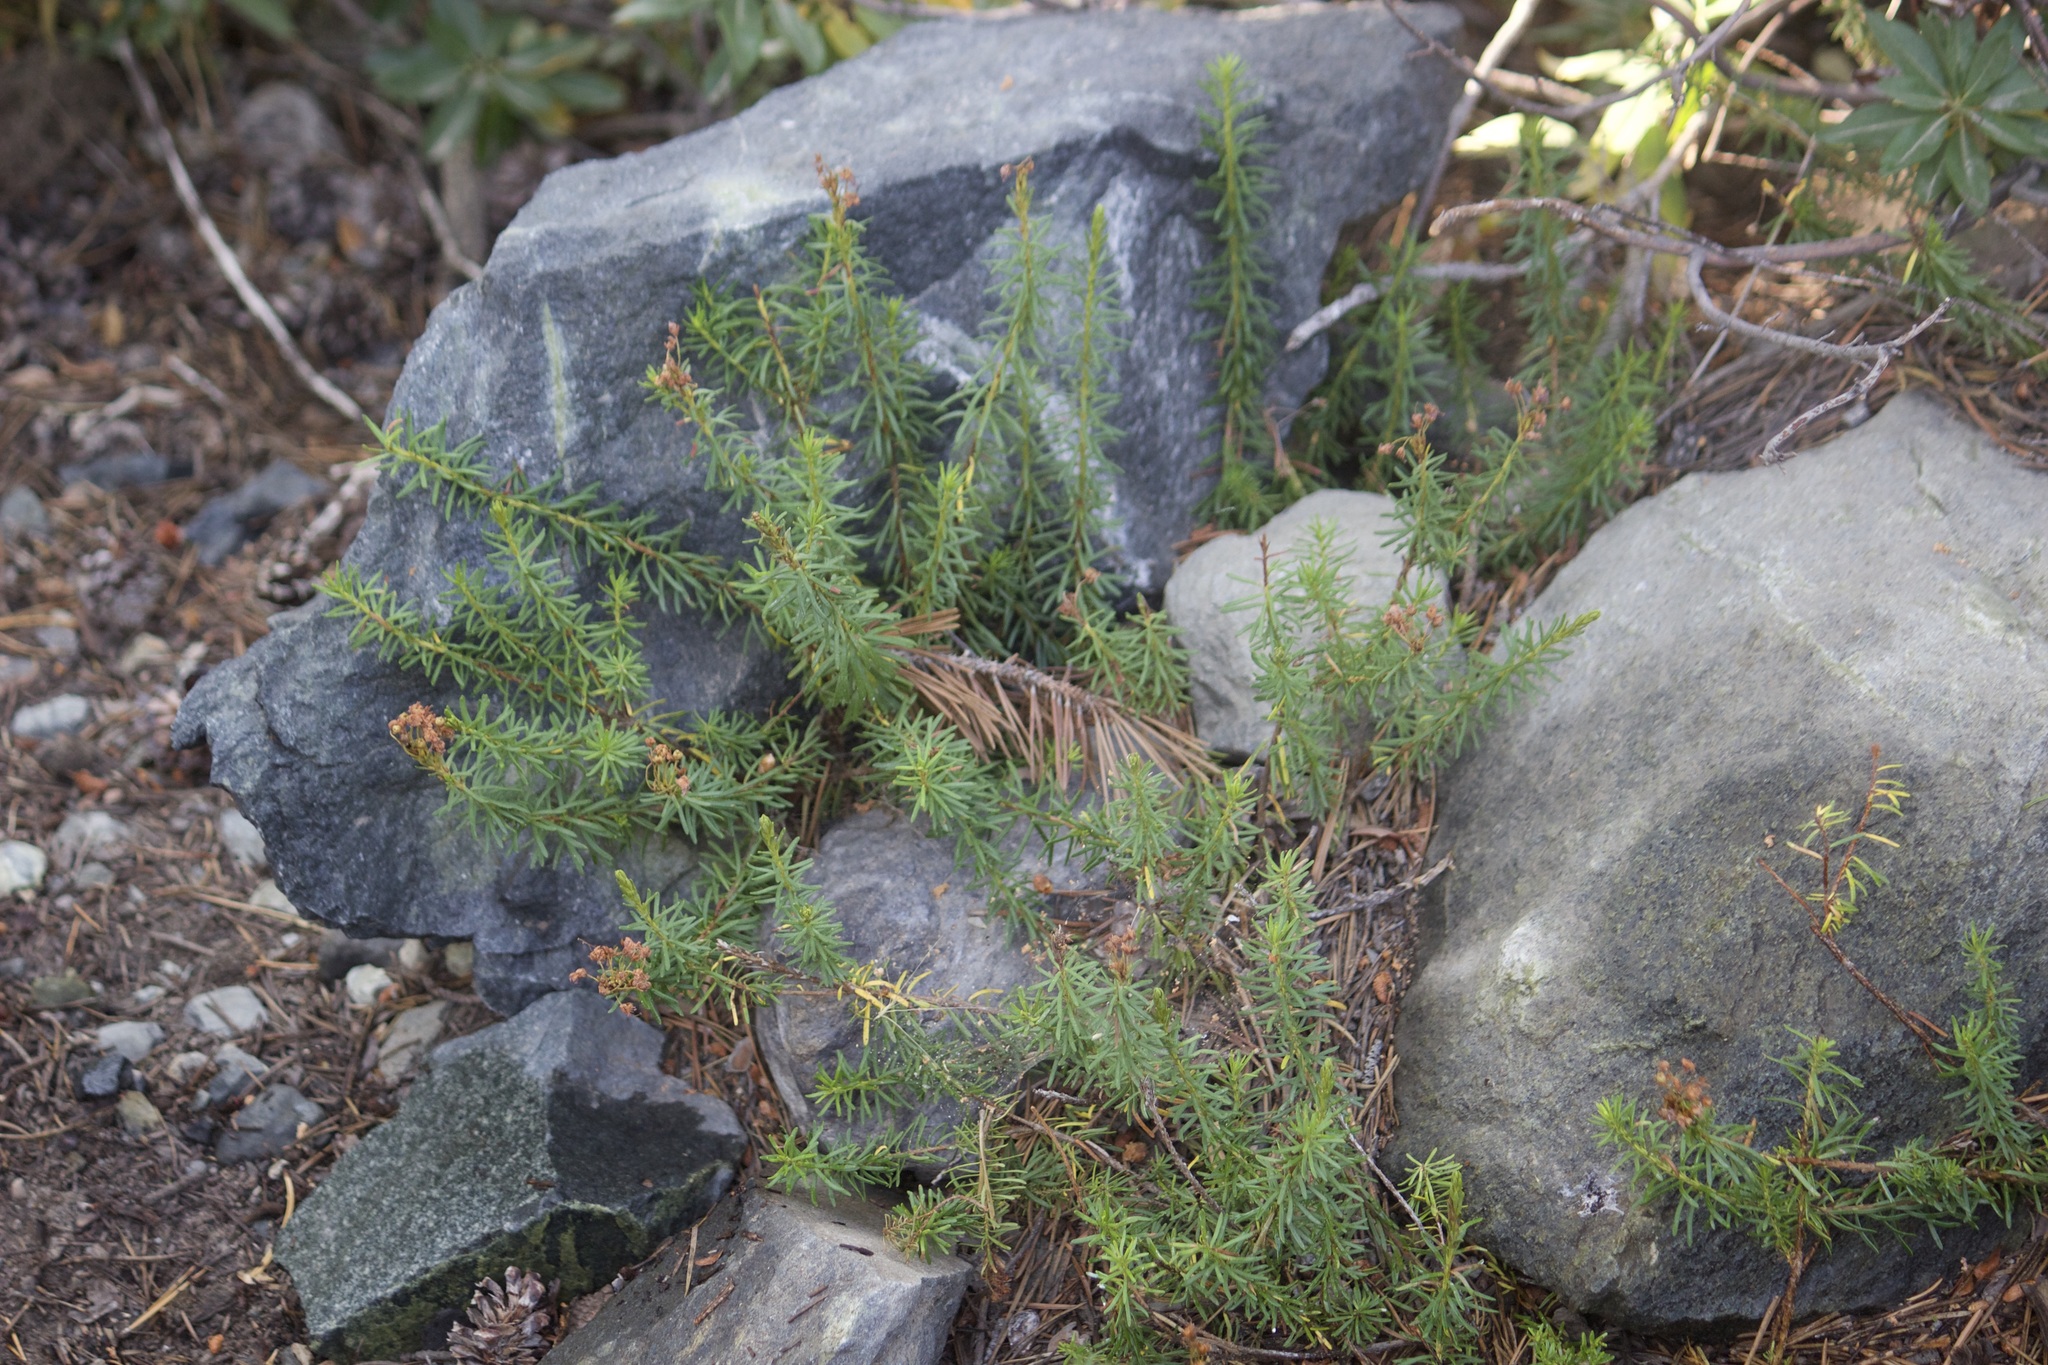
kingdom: Plantae
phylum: Tracheophyta
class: Magnoliopsida
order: Ericales
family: Ericaceae
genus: Phyllodoce
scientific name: Phyllodoce breweri
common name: Brewer's mountain-heather
